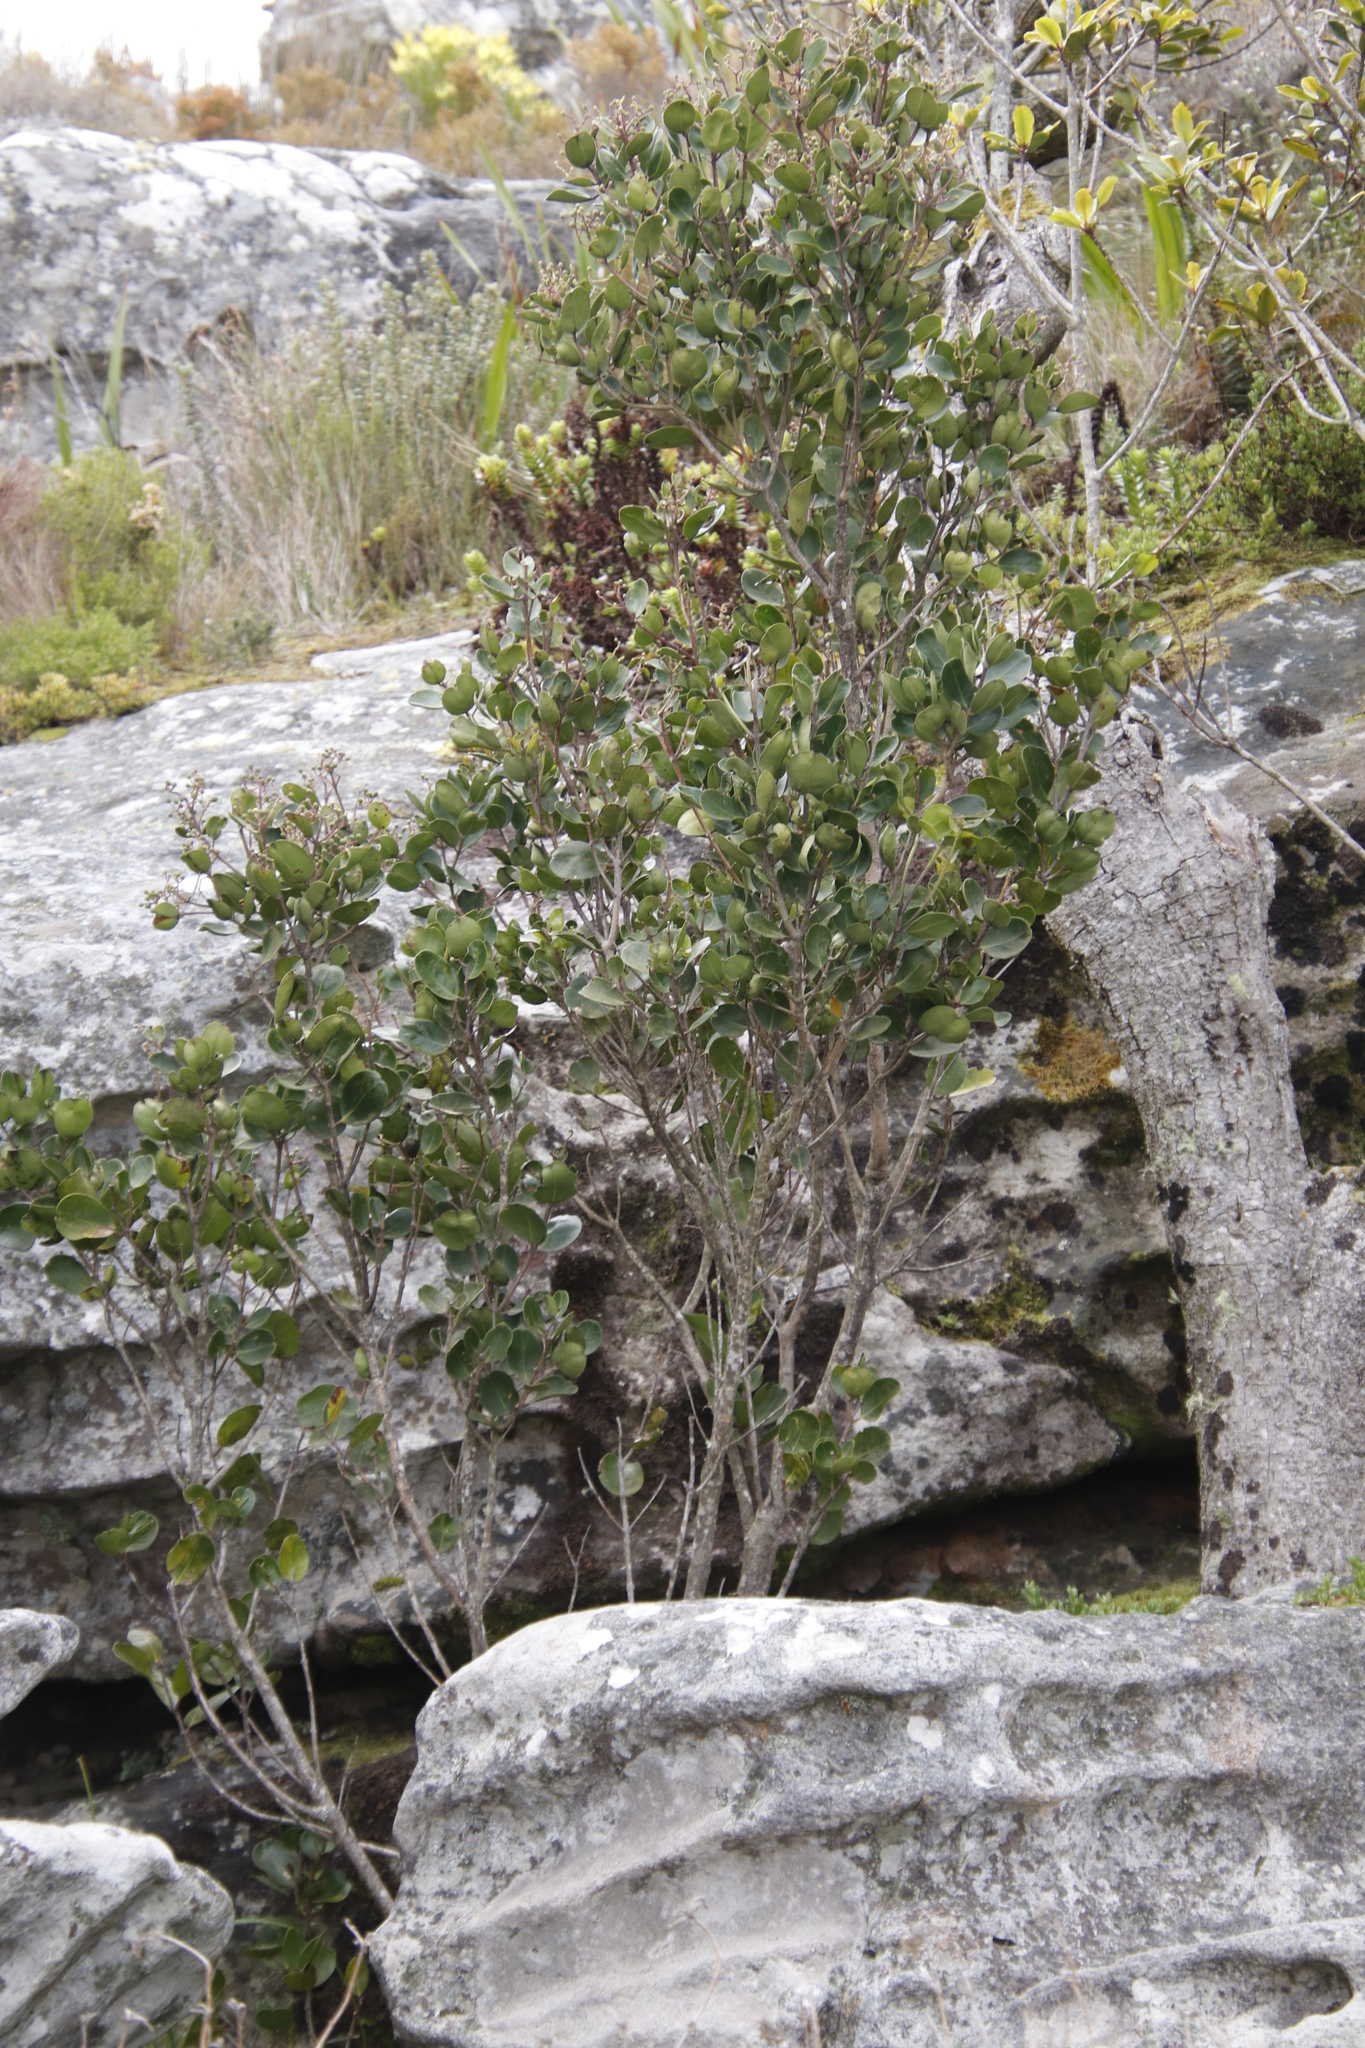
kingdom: Plantae
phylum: Tracheophyta
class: Magnoliopsida
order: Celastrales
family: Celastraceae
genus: Cassine
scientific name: Cassine peragua
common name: Cape saffron
